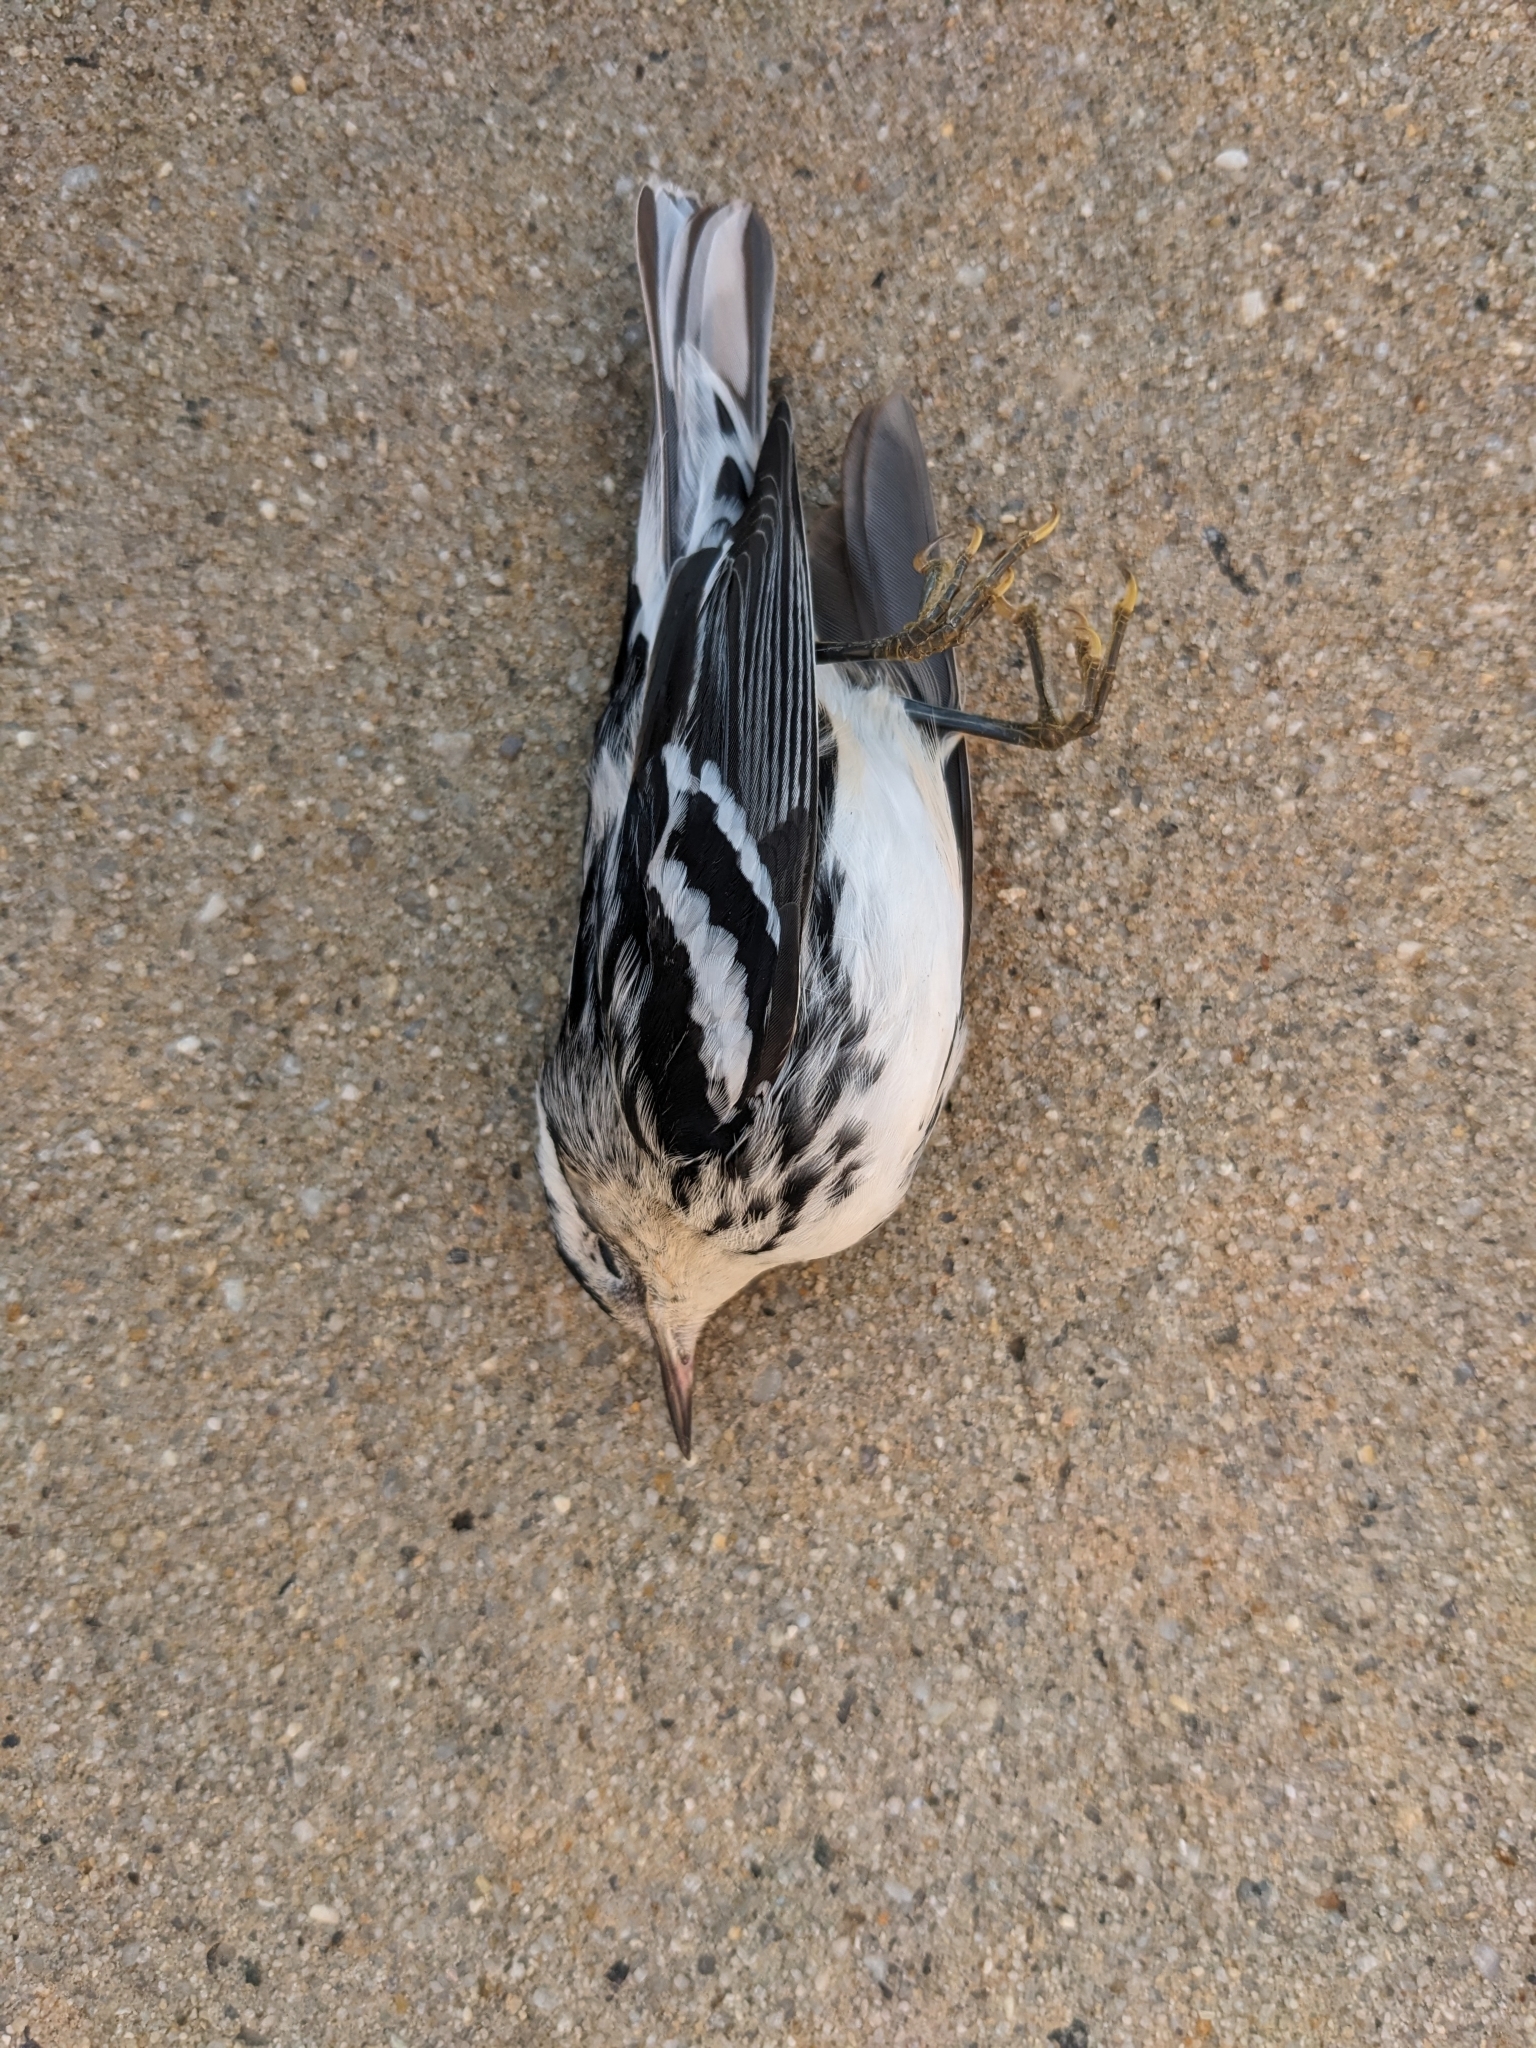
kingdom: Animalia
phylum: Chordata
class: Aves
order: Passeriformes
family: Parulidae
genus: Mniotilta
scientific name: Mniotilta varia
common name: Black-and-white warbler
